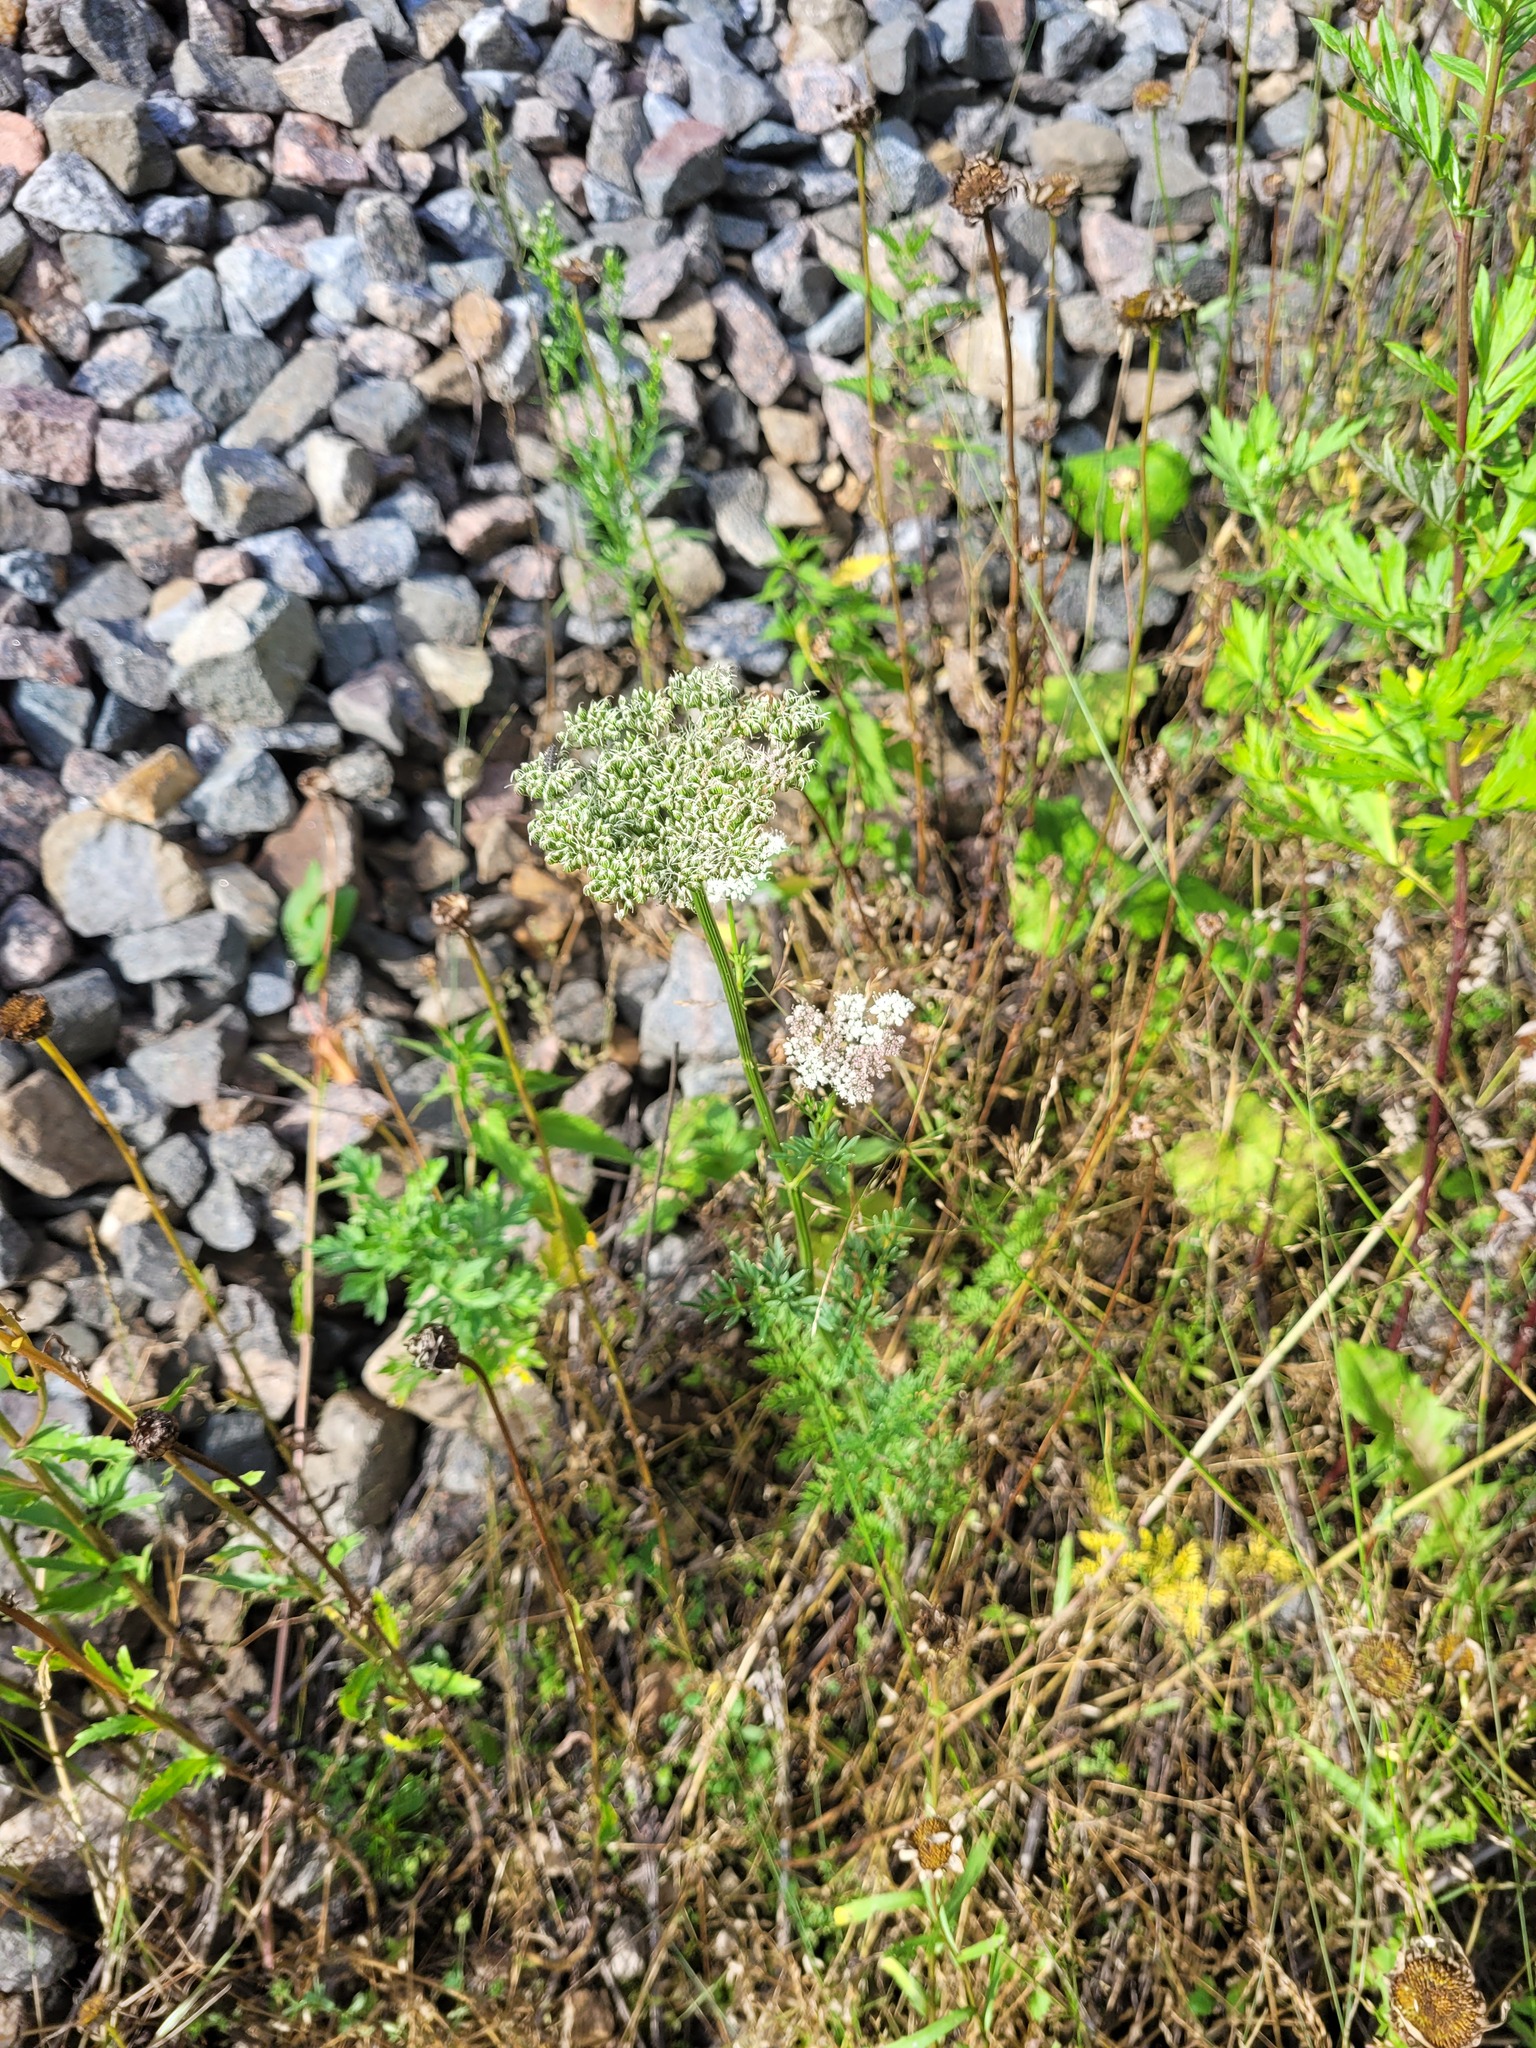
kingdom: Plantae
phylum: Tracheophyta
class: Magnoliopsida
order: Apiales
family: Apiaceae
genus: Selinum
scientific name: Selinum carvifolia
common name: Cambridge milk-parsley
